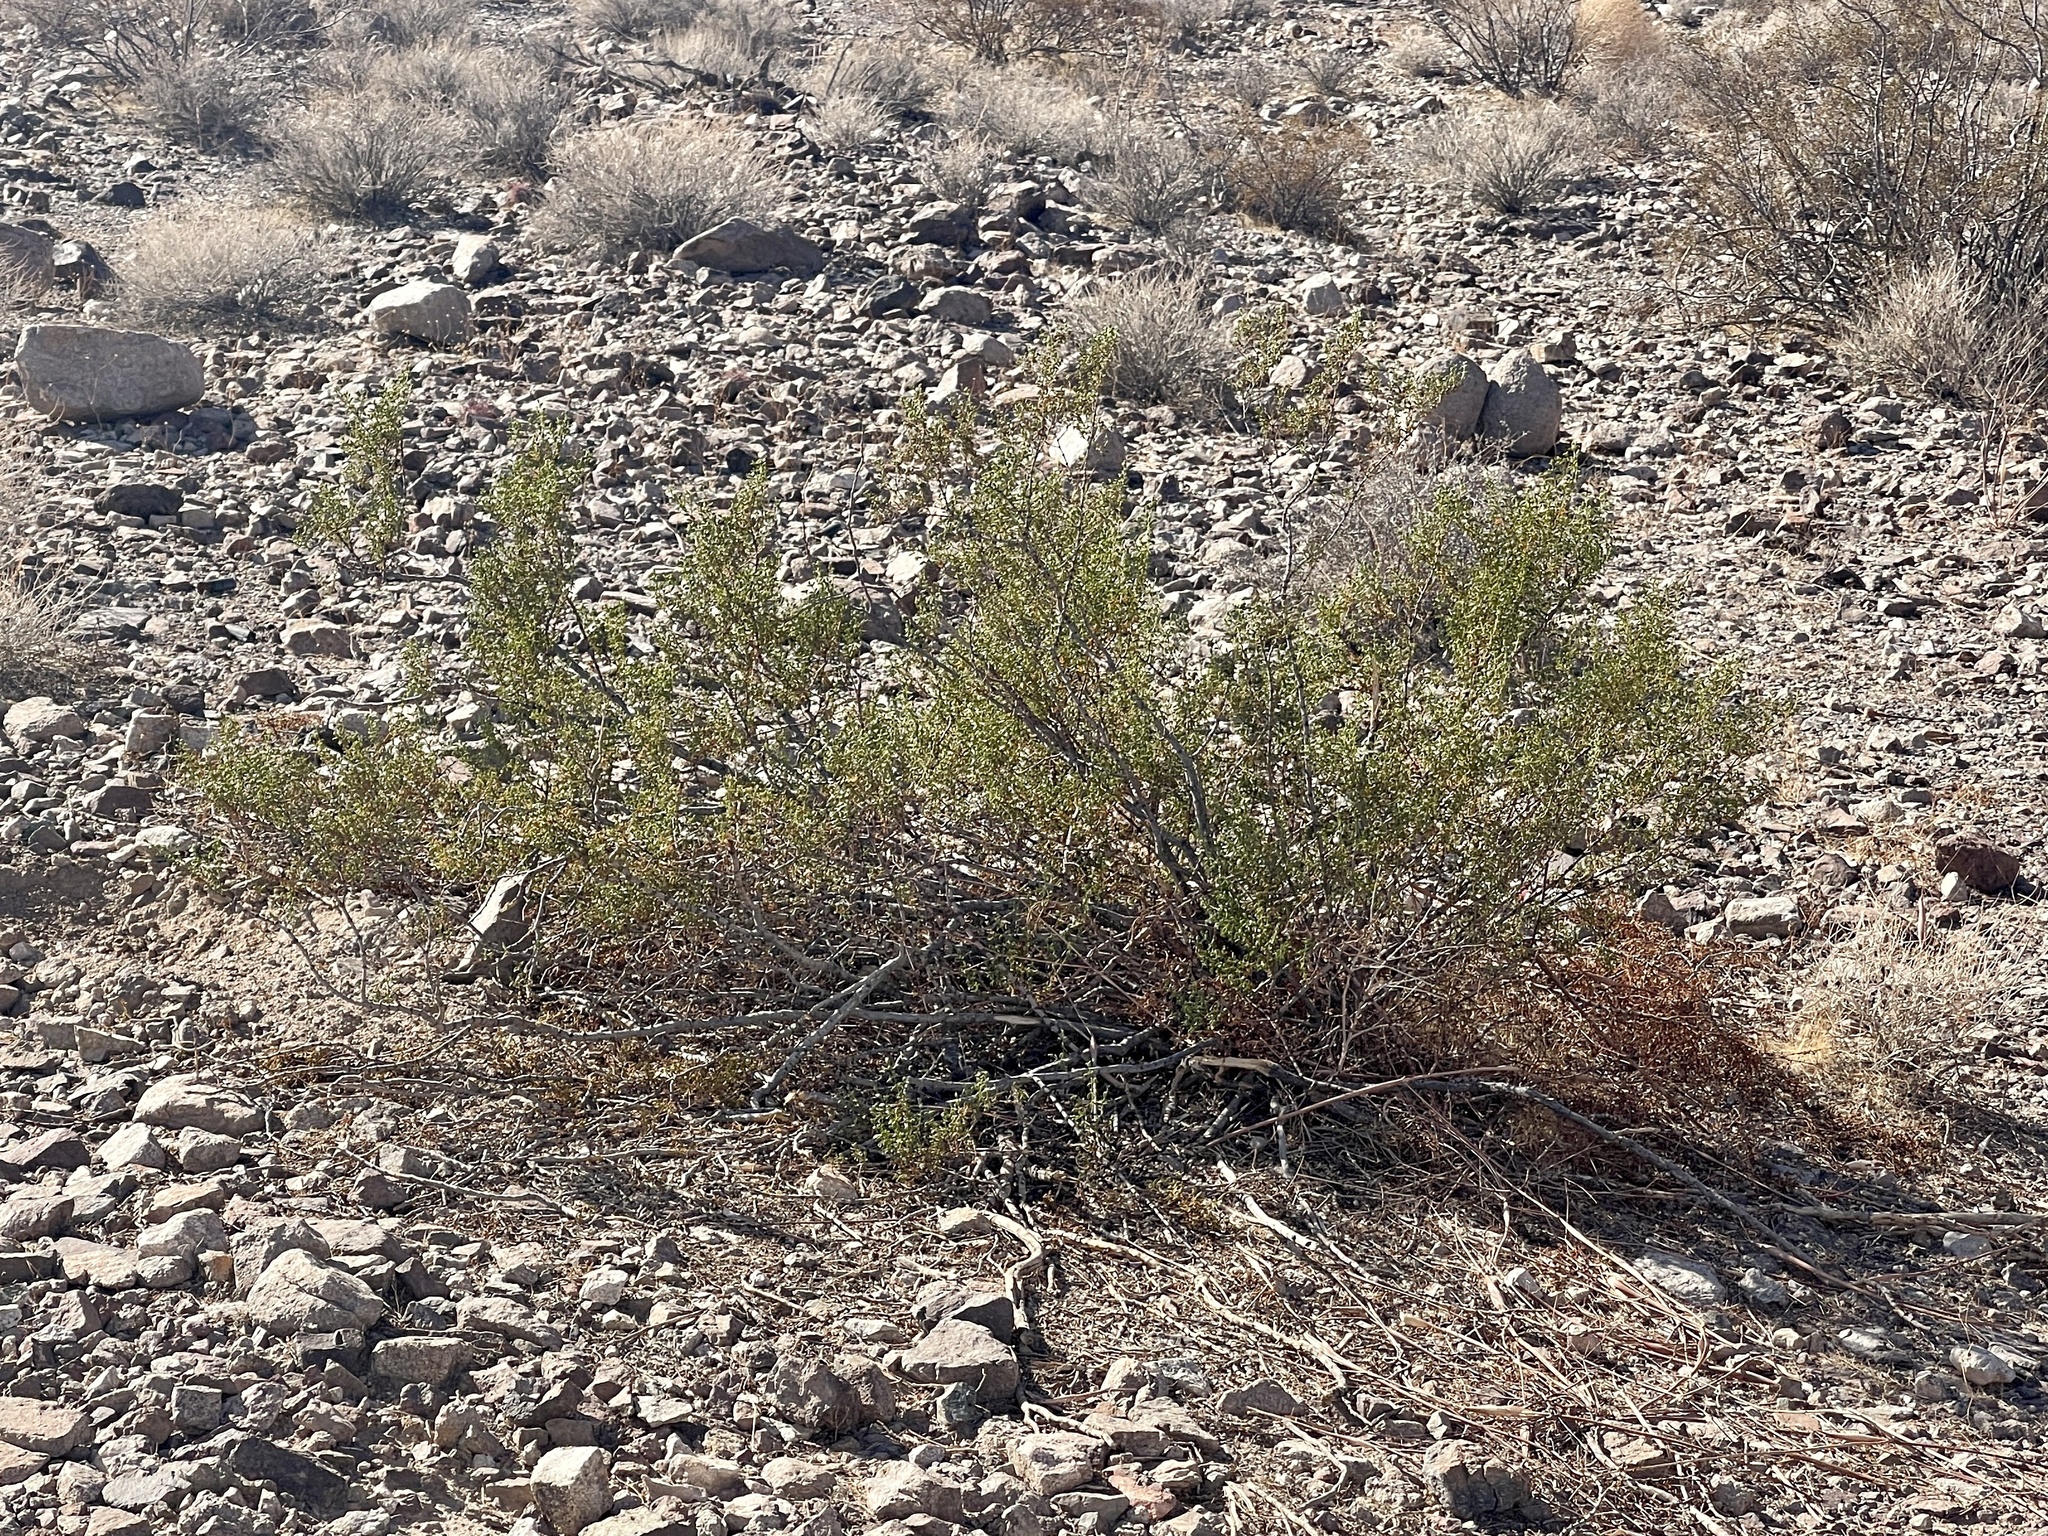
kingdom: Plantae
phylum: Tracheophyta
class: Magnoliopsida
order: Zygophyllales
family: Zygophyllaceae
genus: Larrea
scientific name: Larrea tridentata
